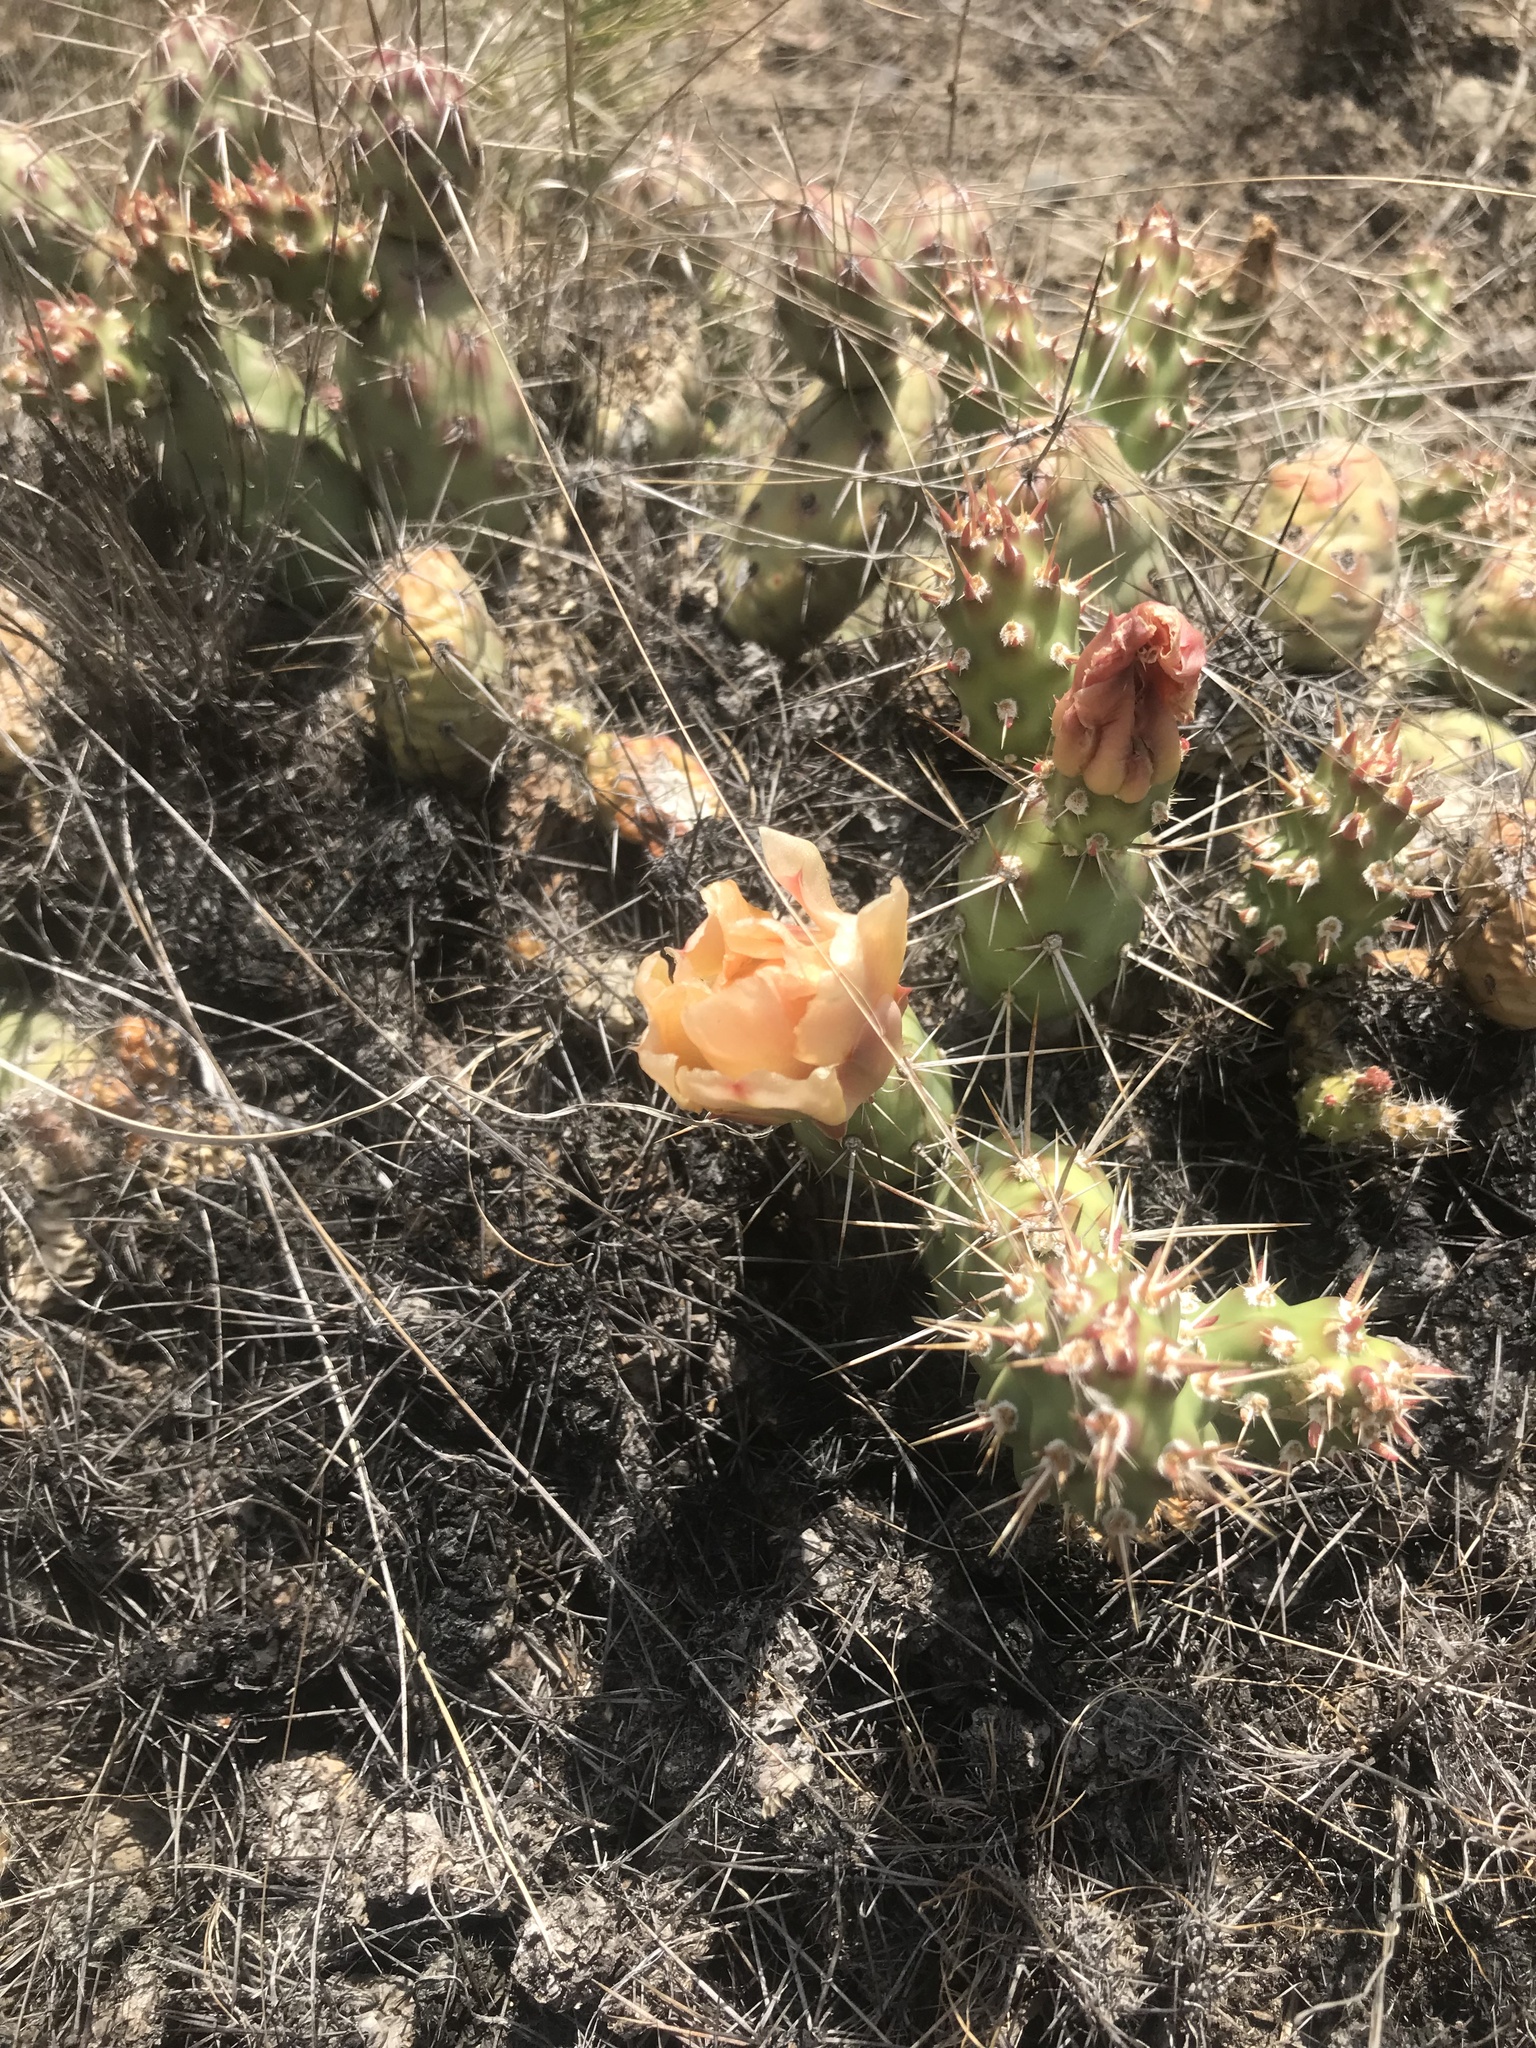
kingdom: Plantae
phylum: Tracheophyta
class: Magnoliopsida
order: Caryophyllales
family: Cactaceae
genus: Opuntia
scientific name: Opuntia fragilis
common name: Brittle cactus
